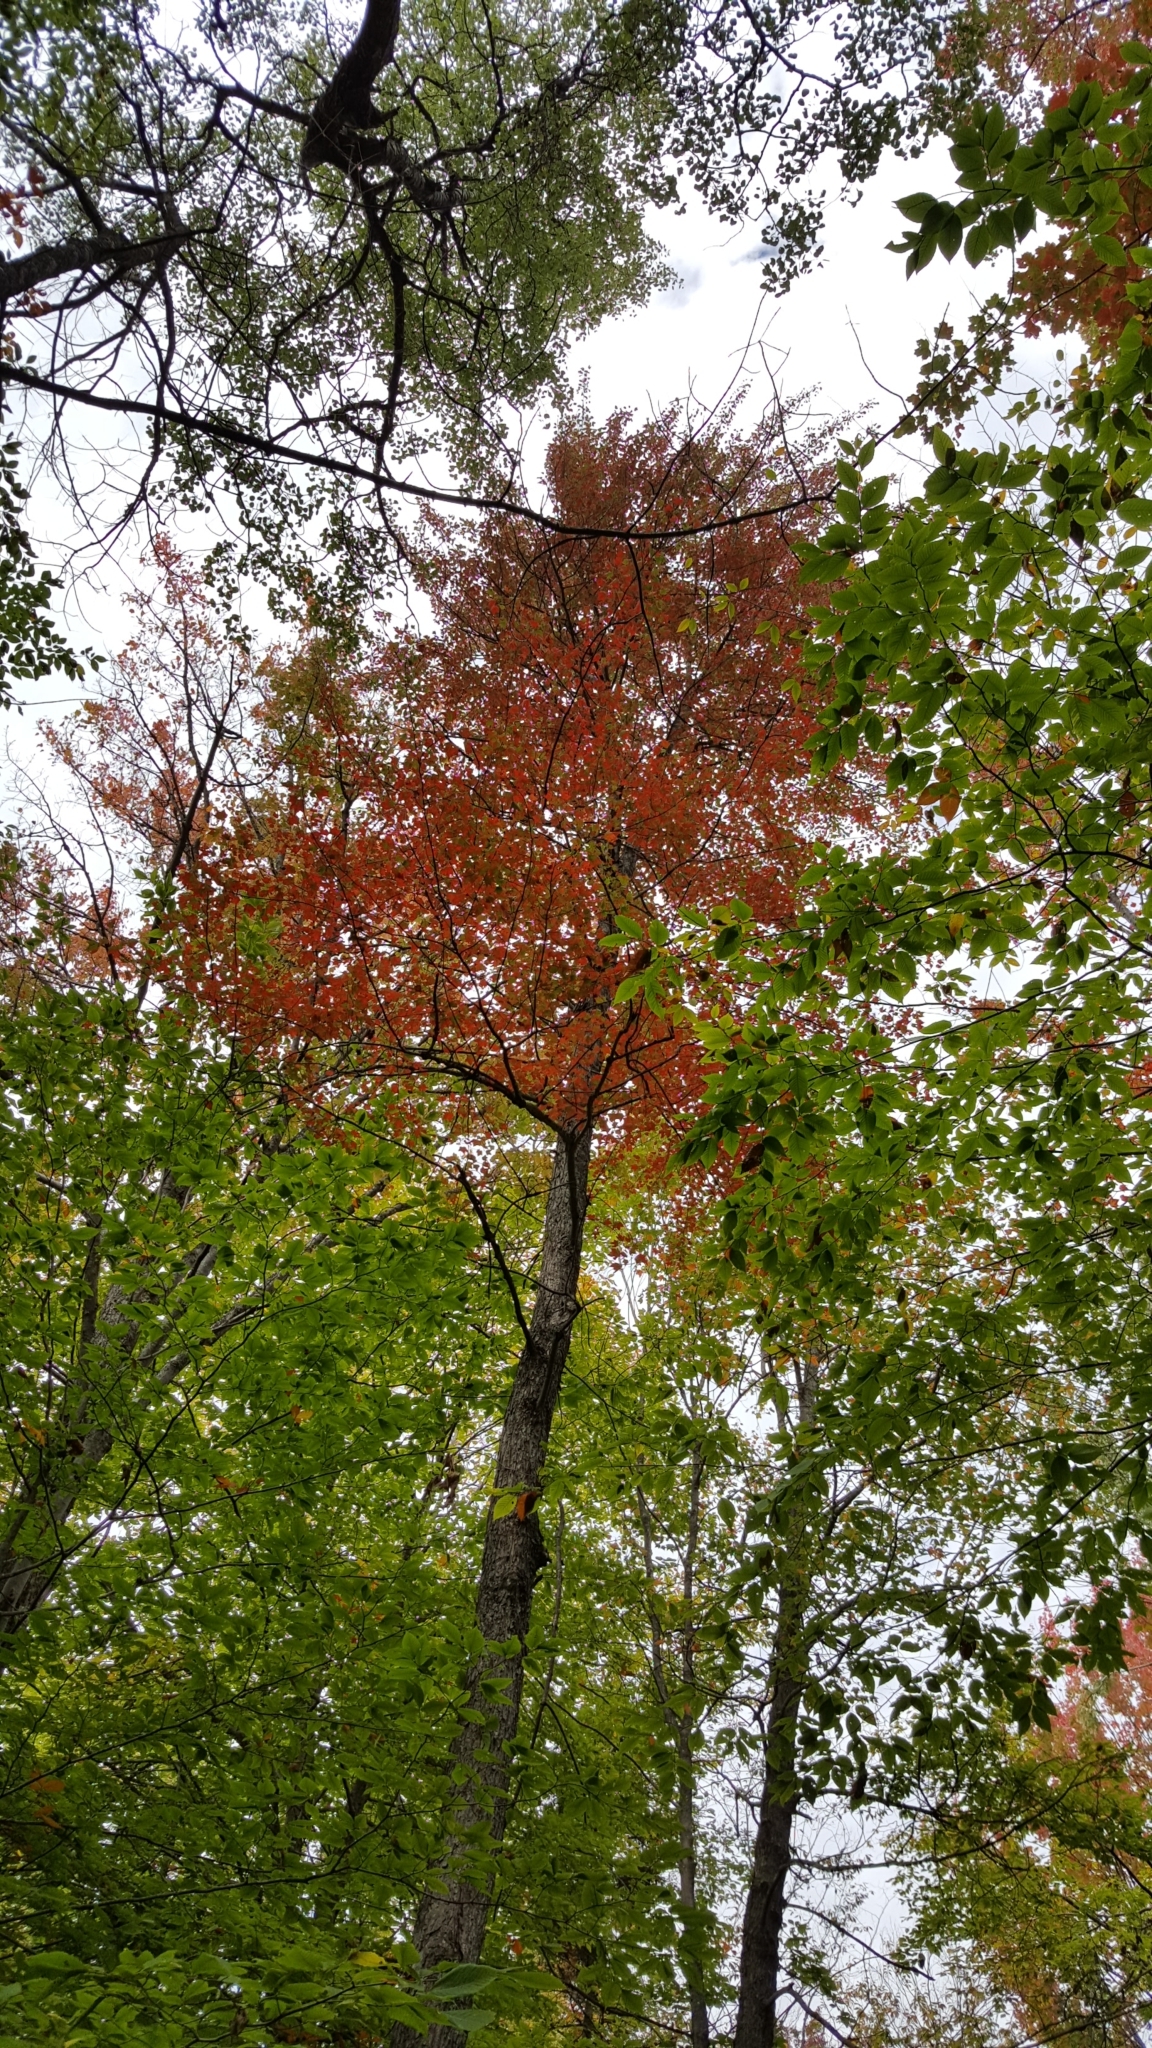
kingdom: Plantae
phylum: Tracheophyta
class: Magnoliopsida
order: Sapindales
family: Sapindaceae
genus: Acer
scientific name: Acer rubrum
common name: Red maple
